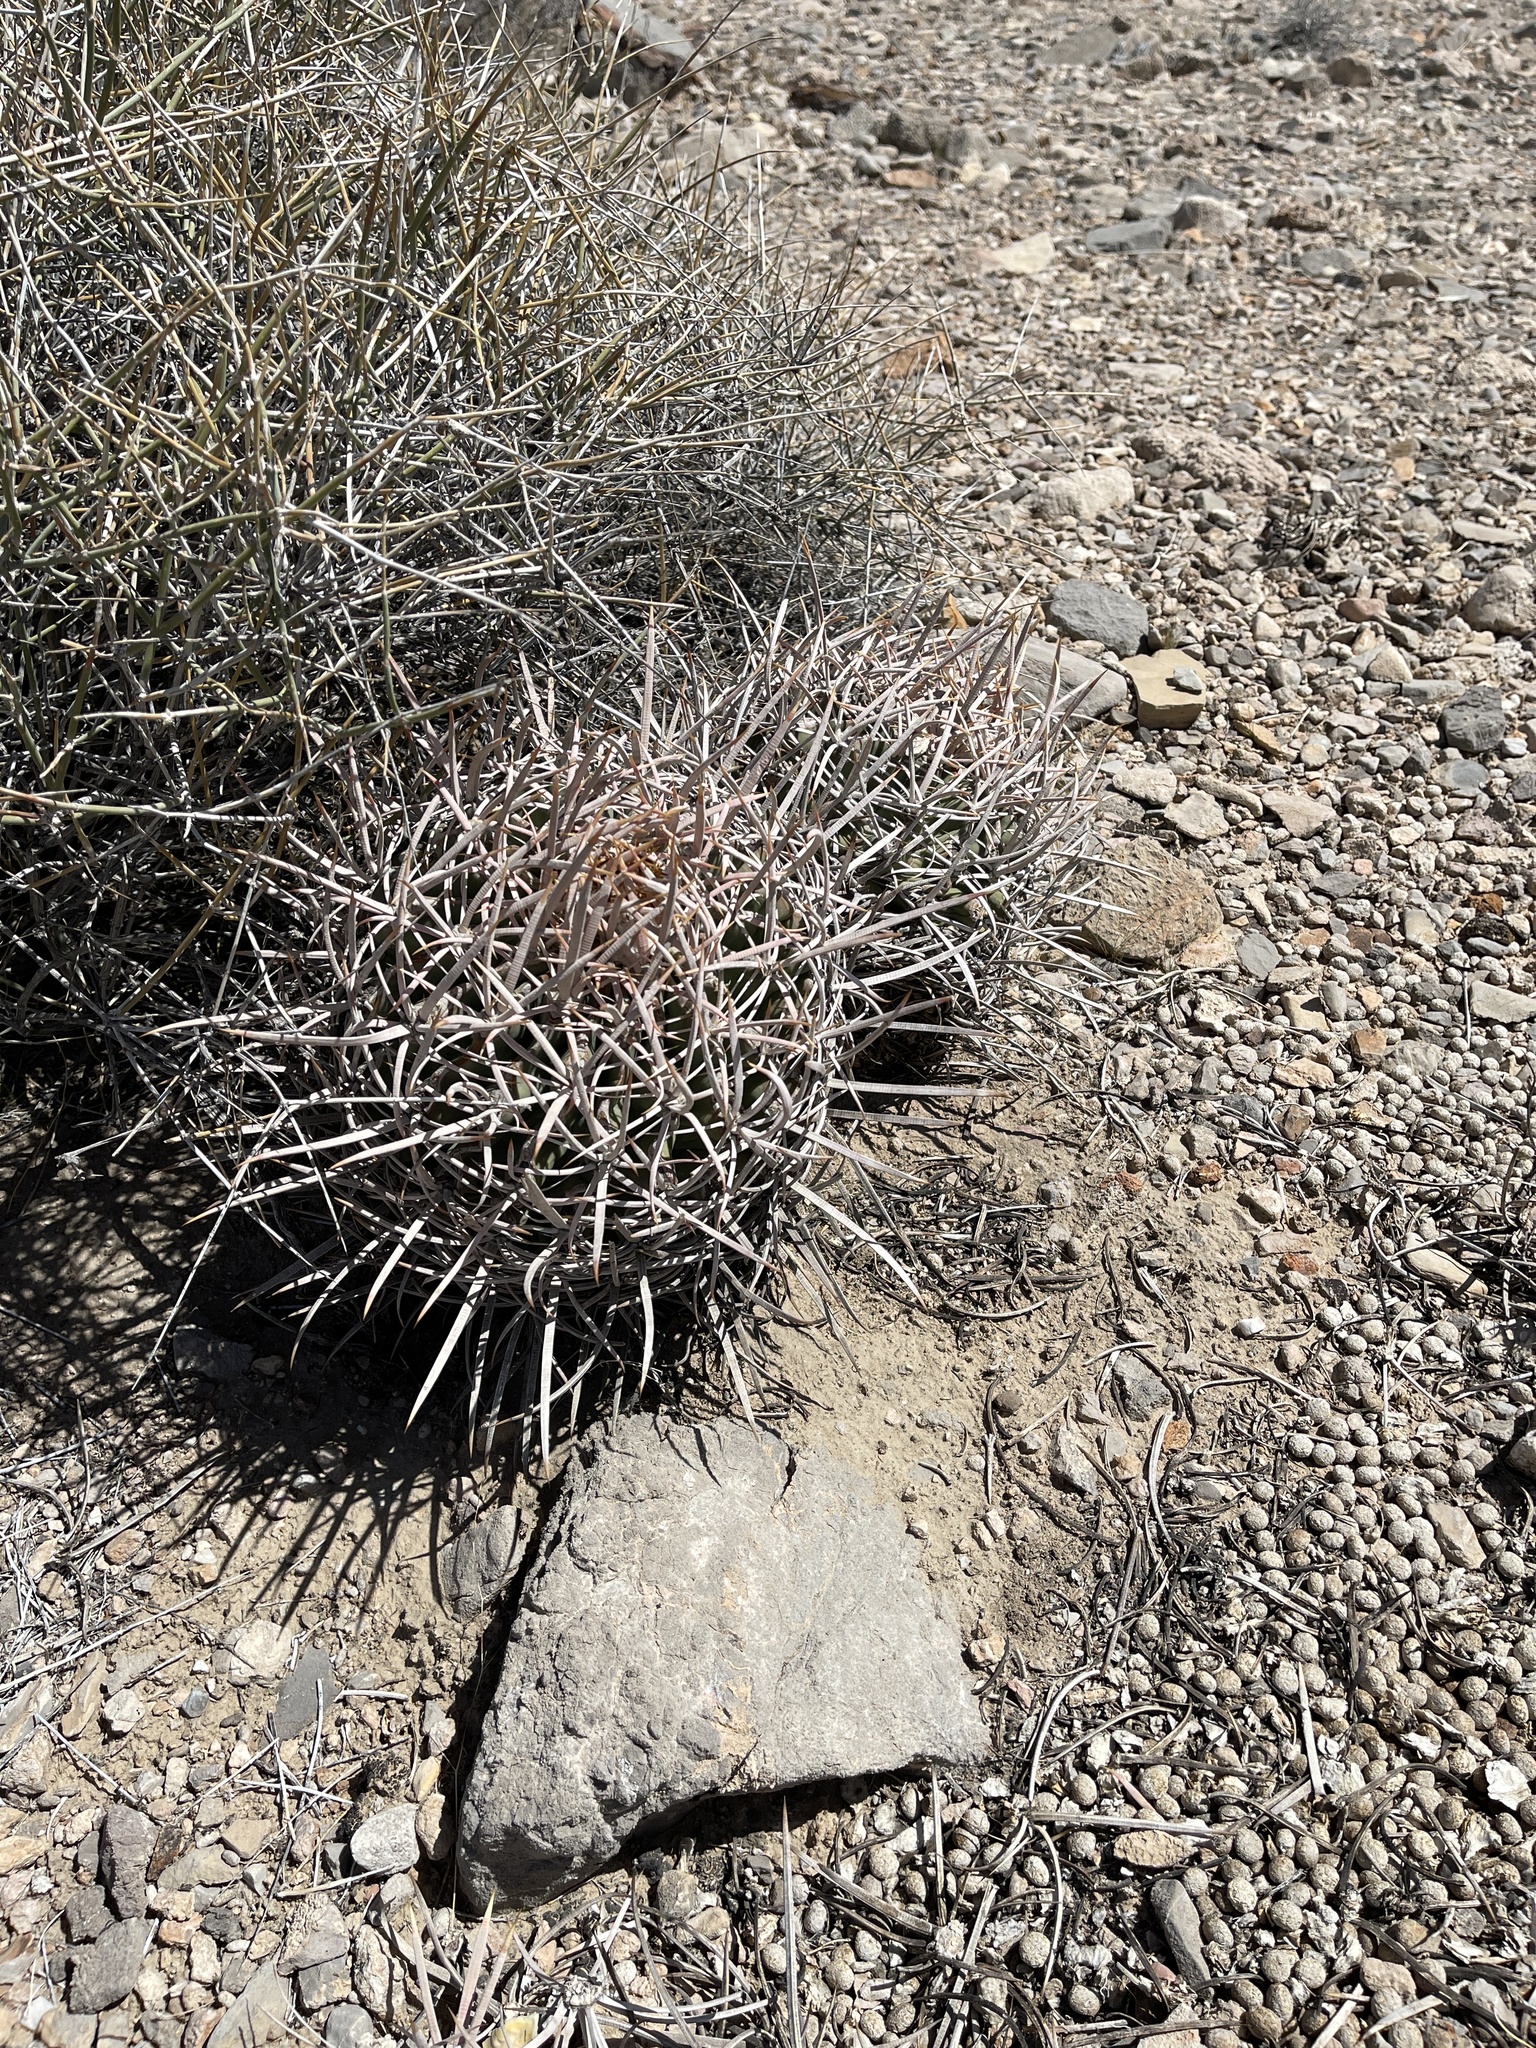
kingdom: Plantae
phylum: Tracheophyta
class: Magnoliopsida
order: Caryophyllales
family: Cactaceae
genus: Echinocactus
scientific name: Echinocactus polycephalus
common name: Cottontop cactus
